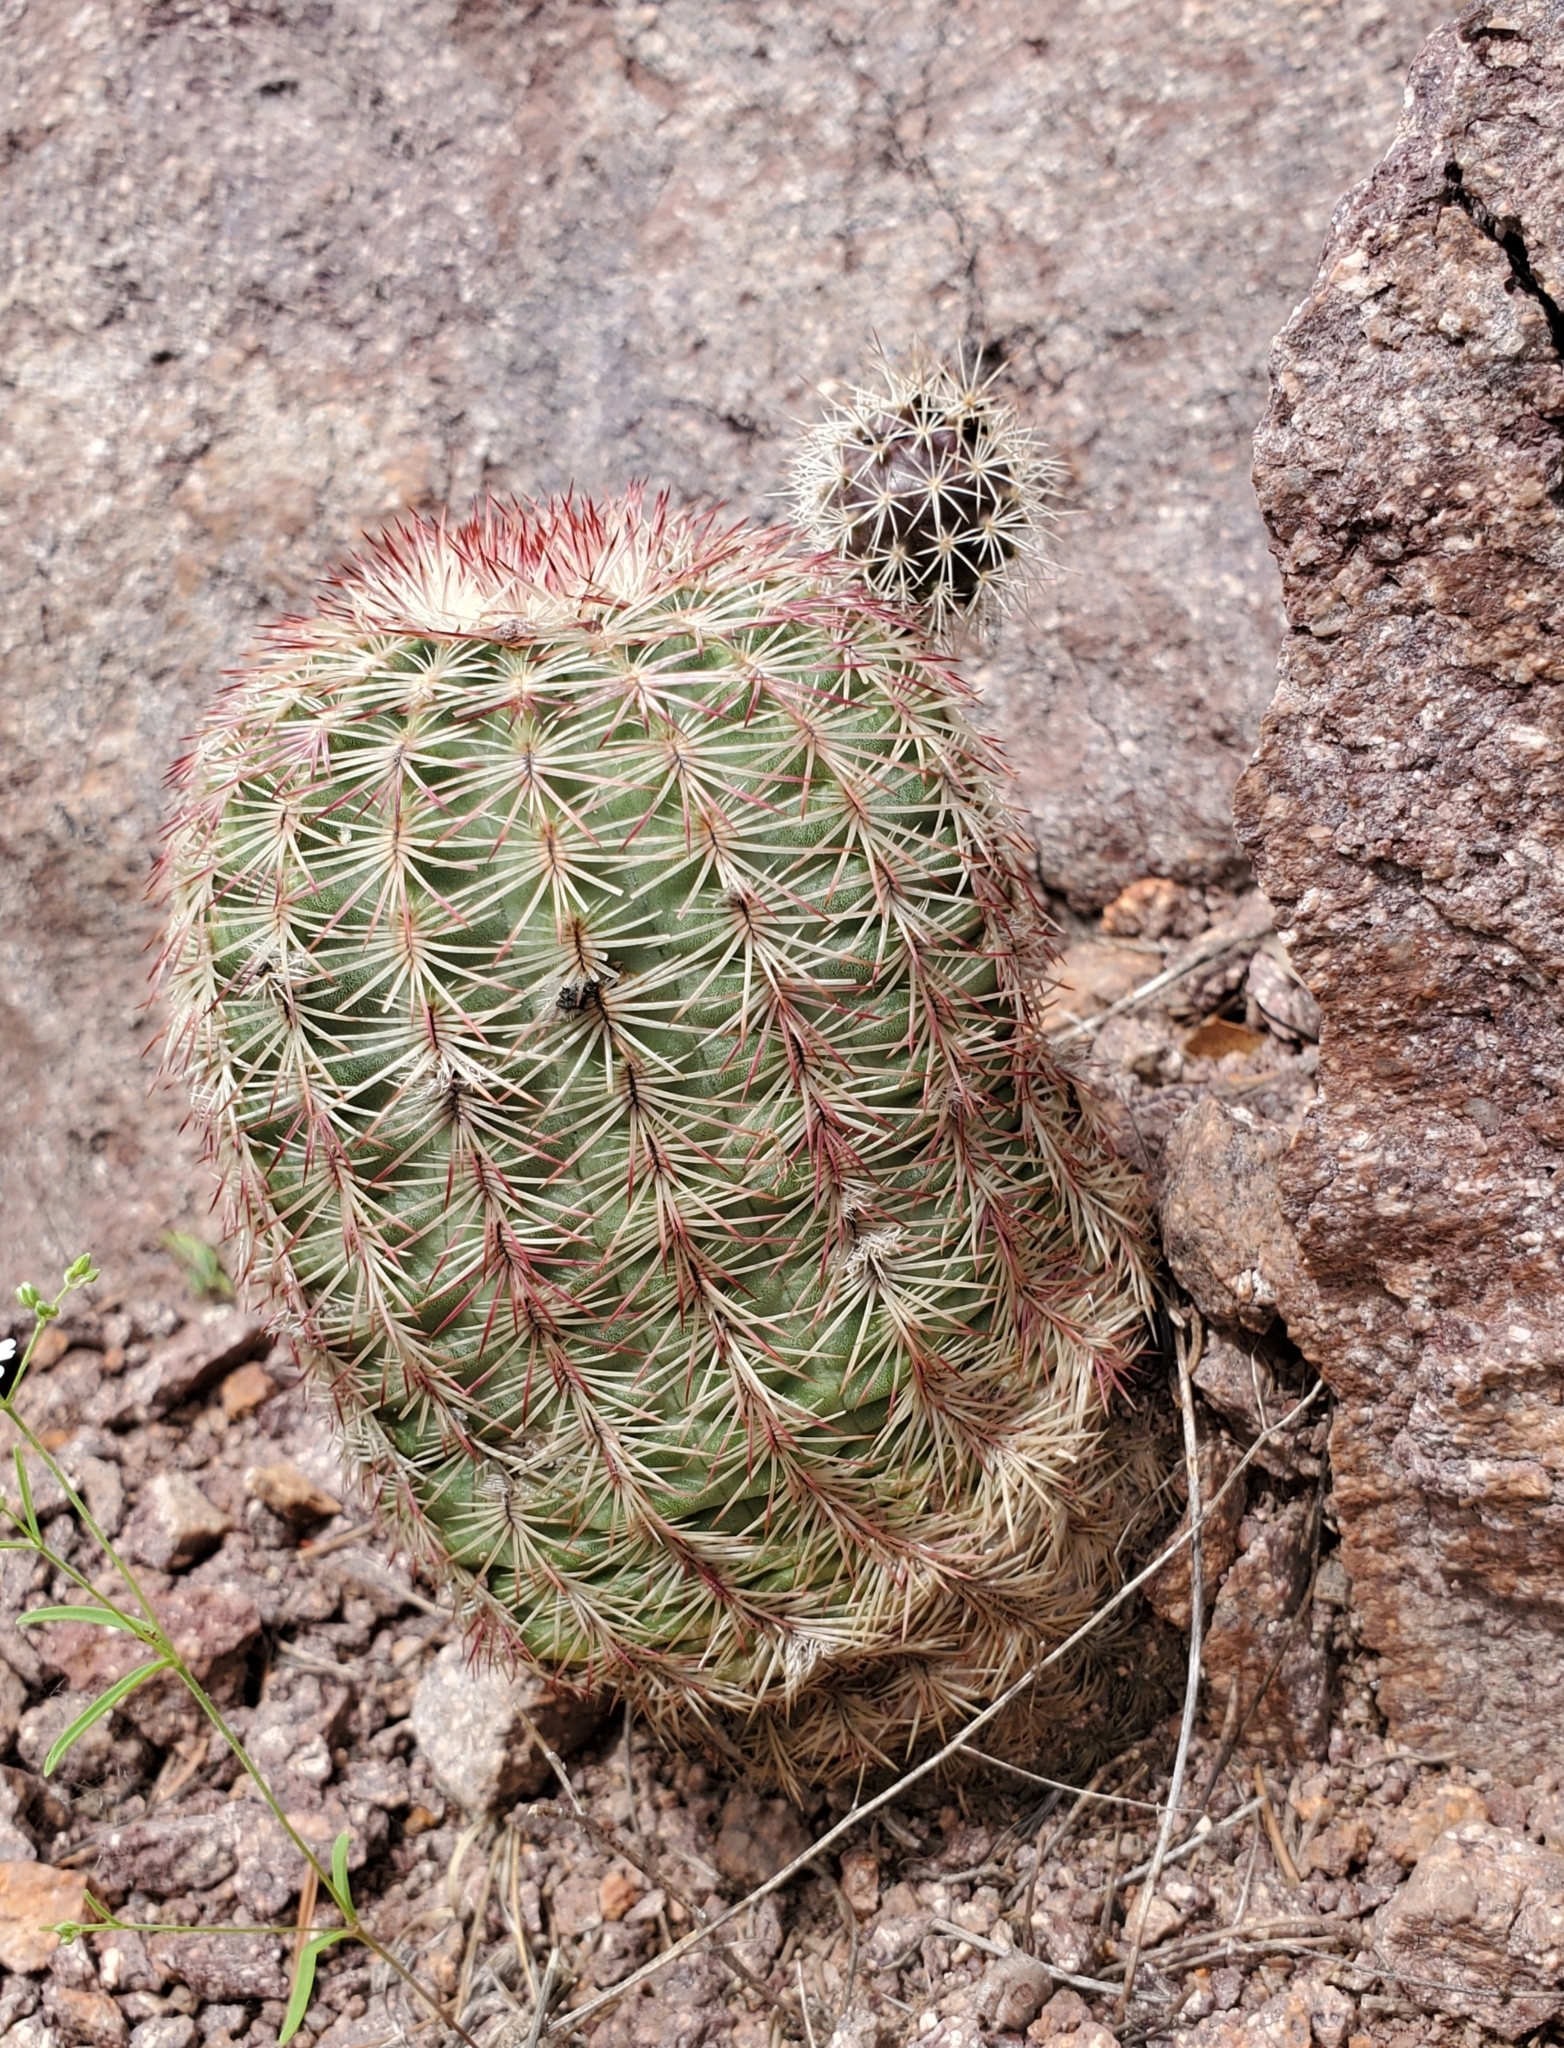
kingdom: Plantae
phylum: Tracheophyta
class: Magnoliopsida
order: Caryophyllales
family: Cactaceae
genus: Echinocereus
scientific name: Echinocereus rigidissimus
